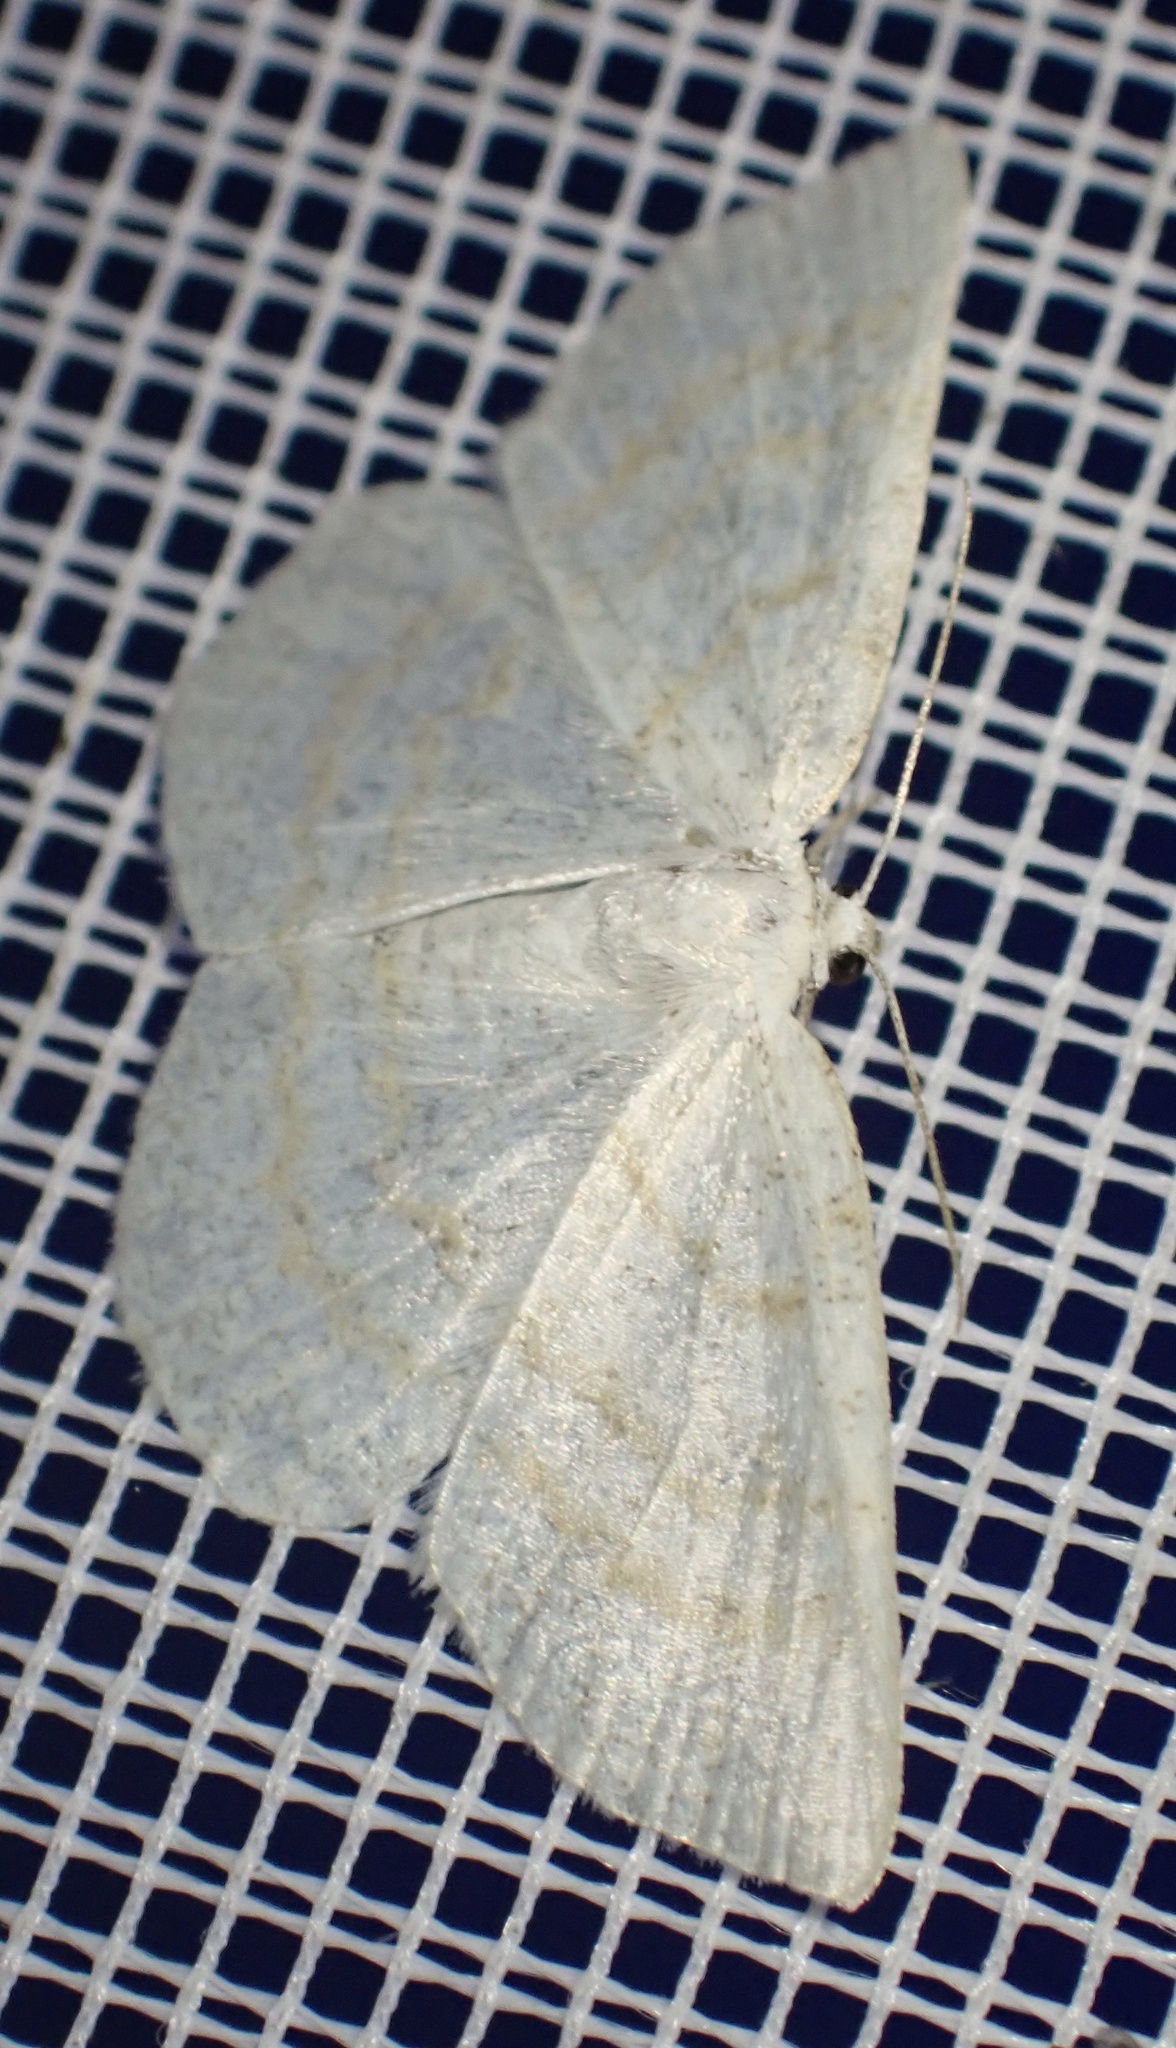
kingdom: Animalia
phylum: Arthropoda
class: Insecta
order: Lepidoptera
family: Geometridae
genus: Cabera
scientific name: Cabera exanthemata
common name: Common wave
